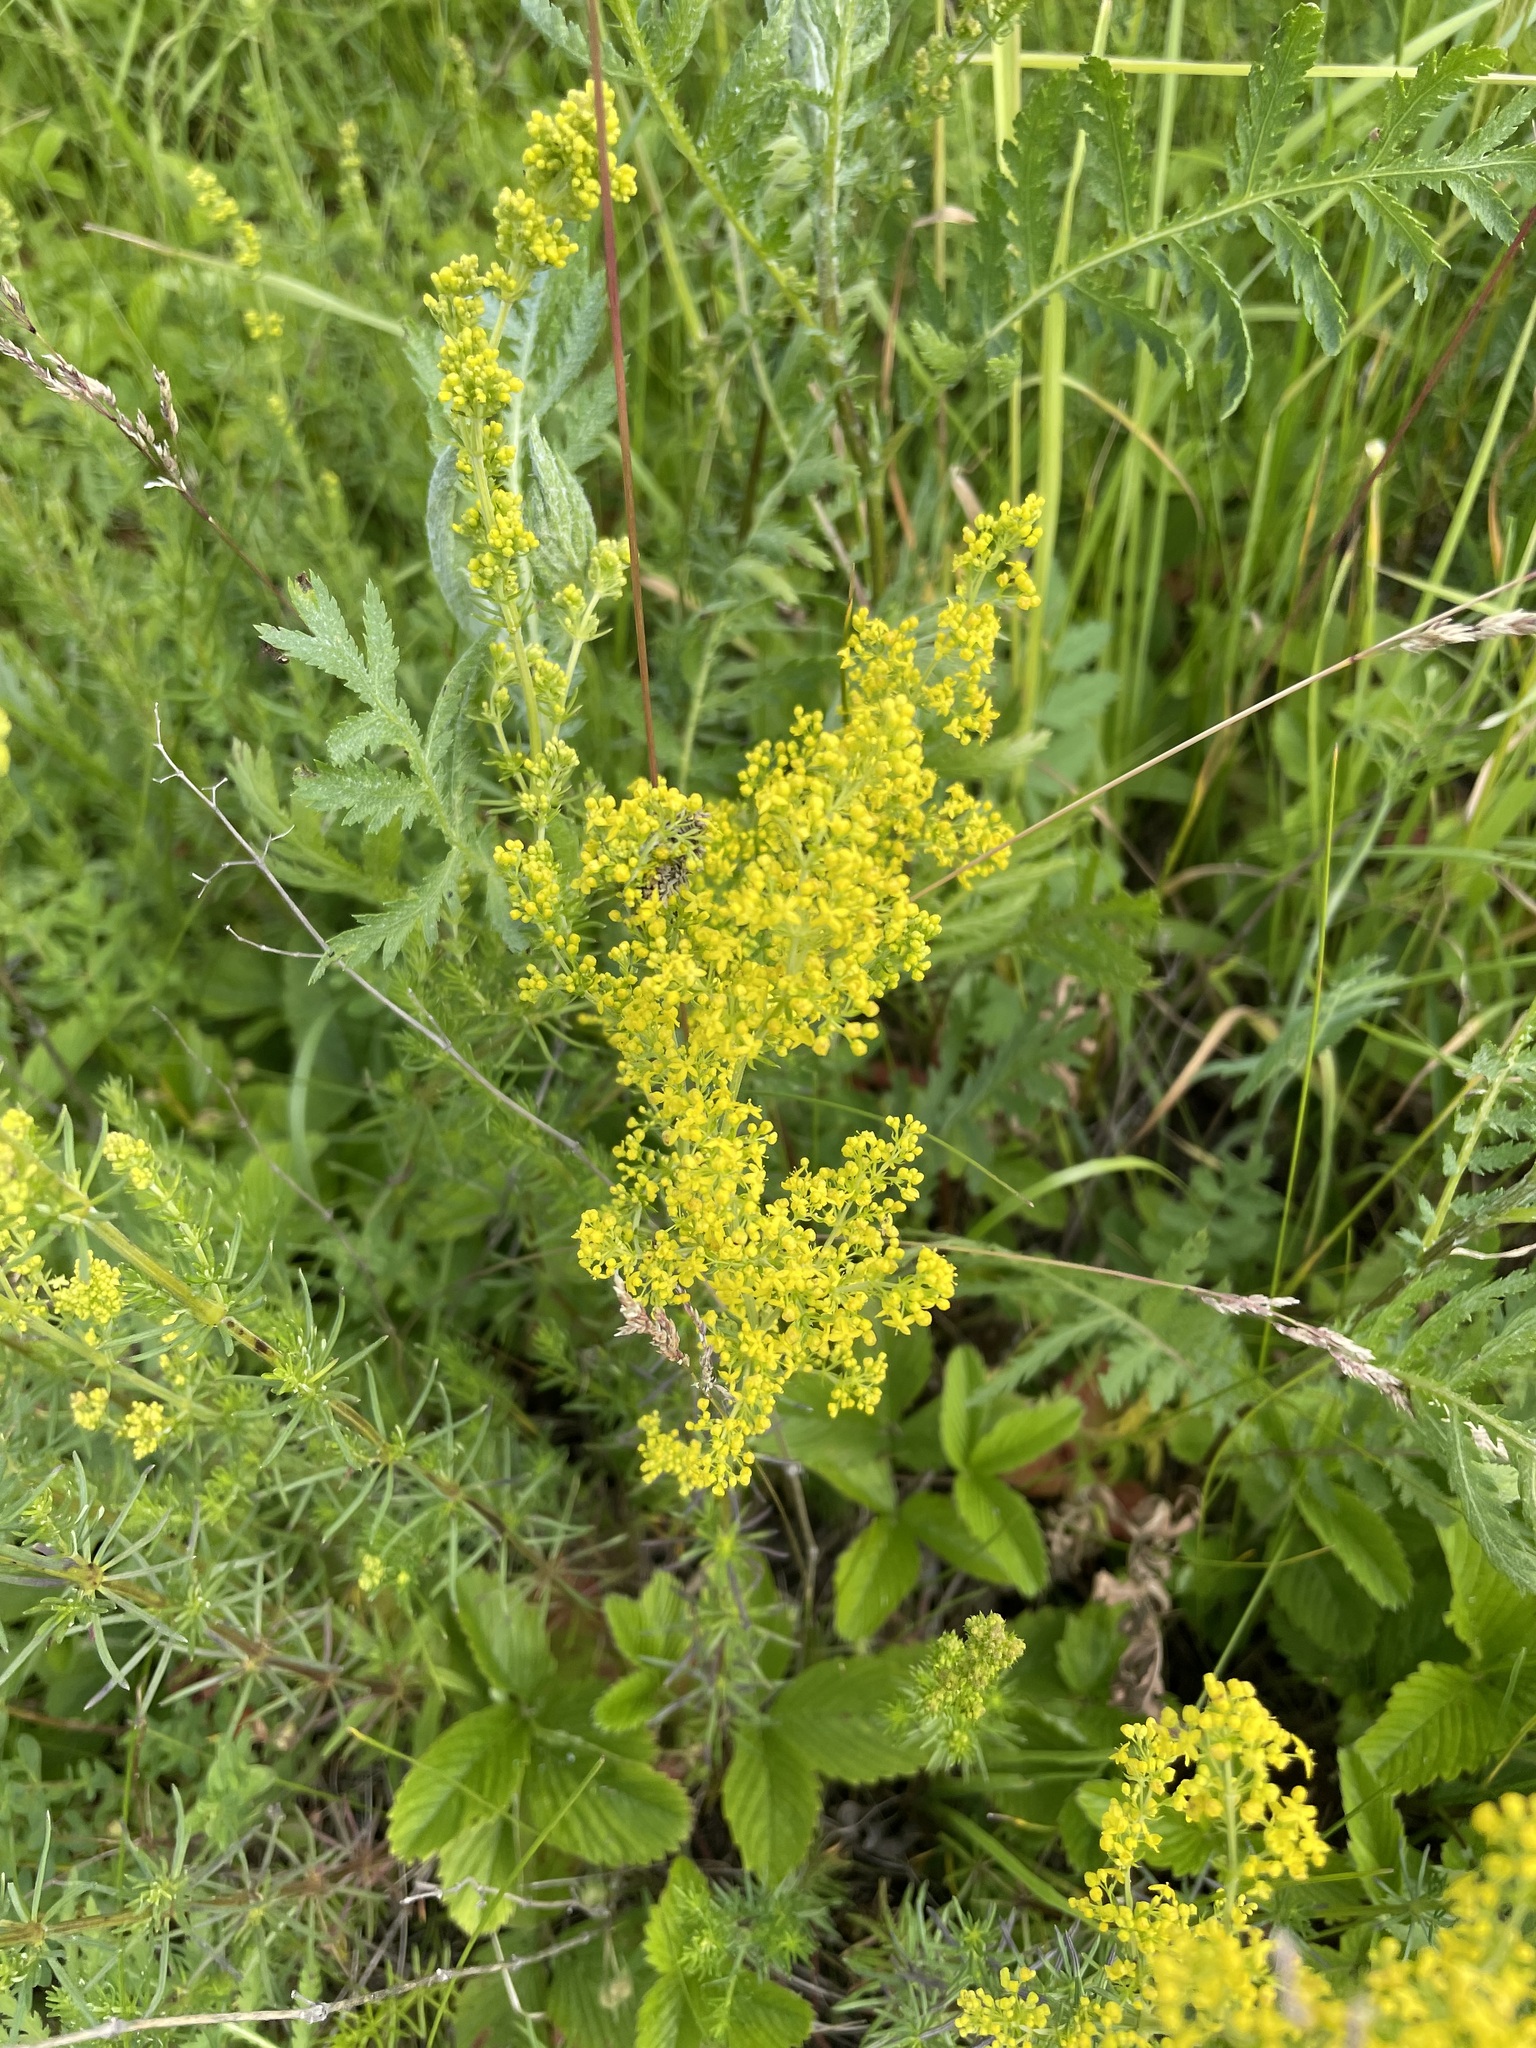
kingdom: Plantae
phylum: Tracheophyta
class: Magnoliopsida
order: Gentianales
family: Rubiaceae
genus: Galium
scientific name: Galium verum
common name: Lady's bedstraw
